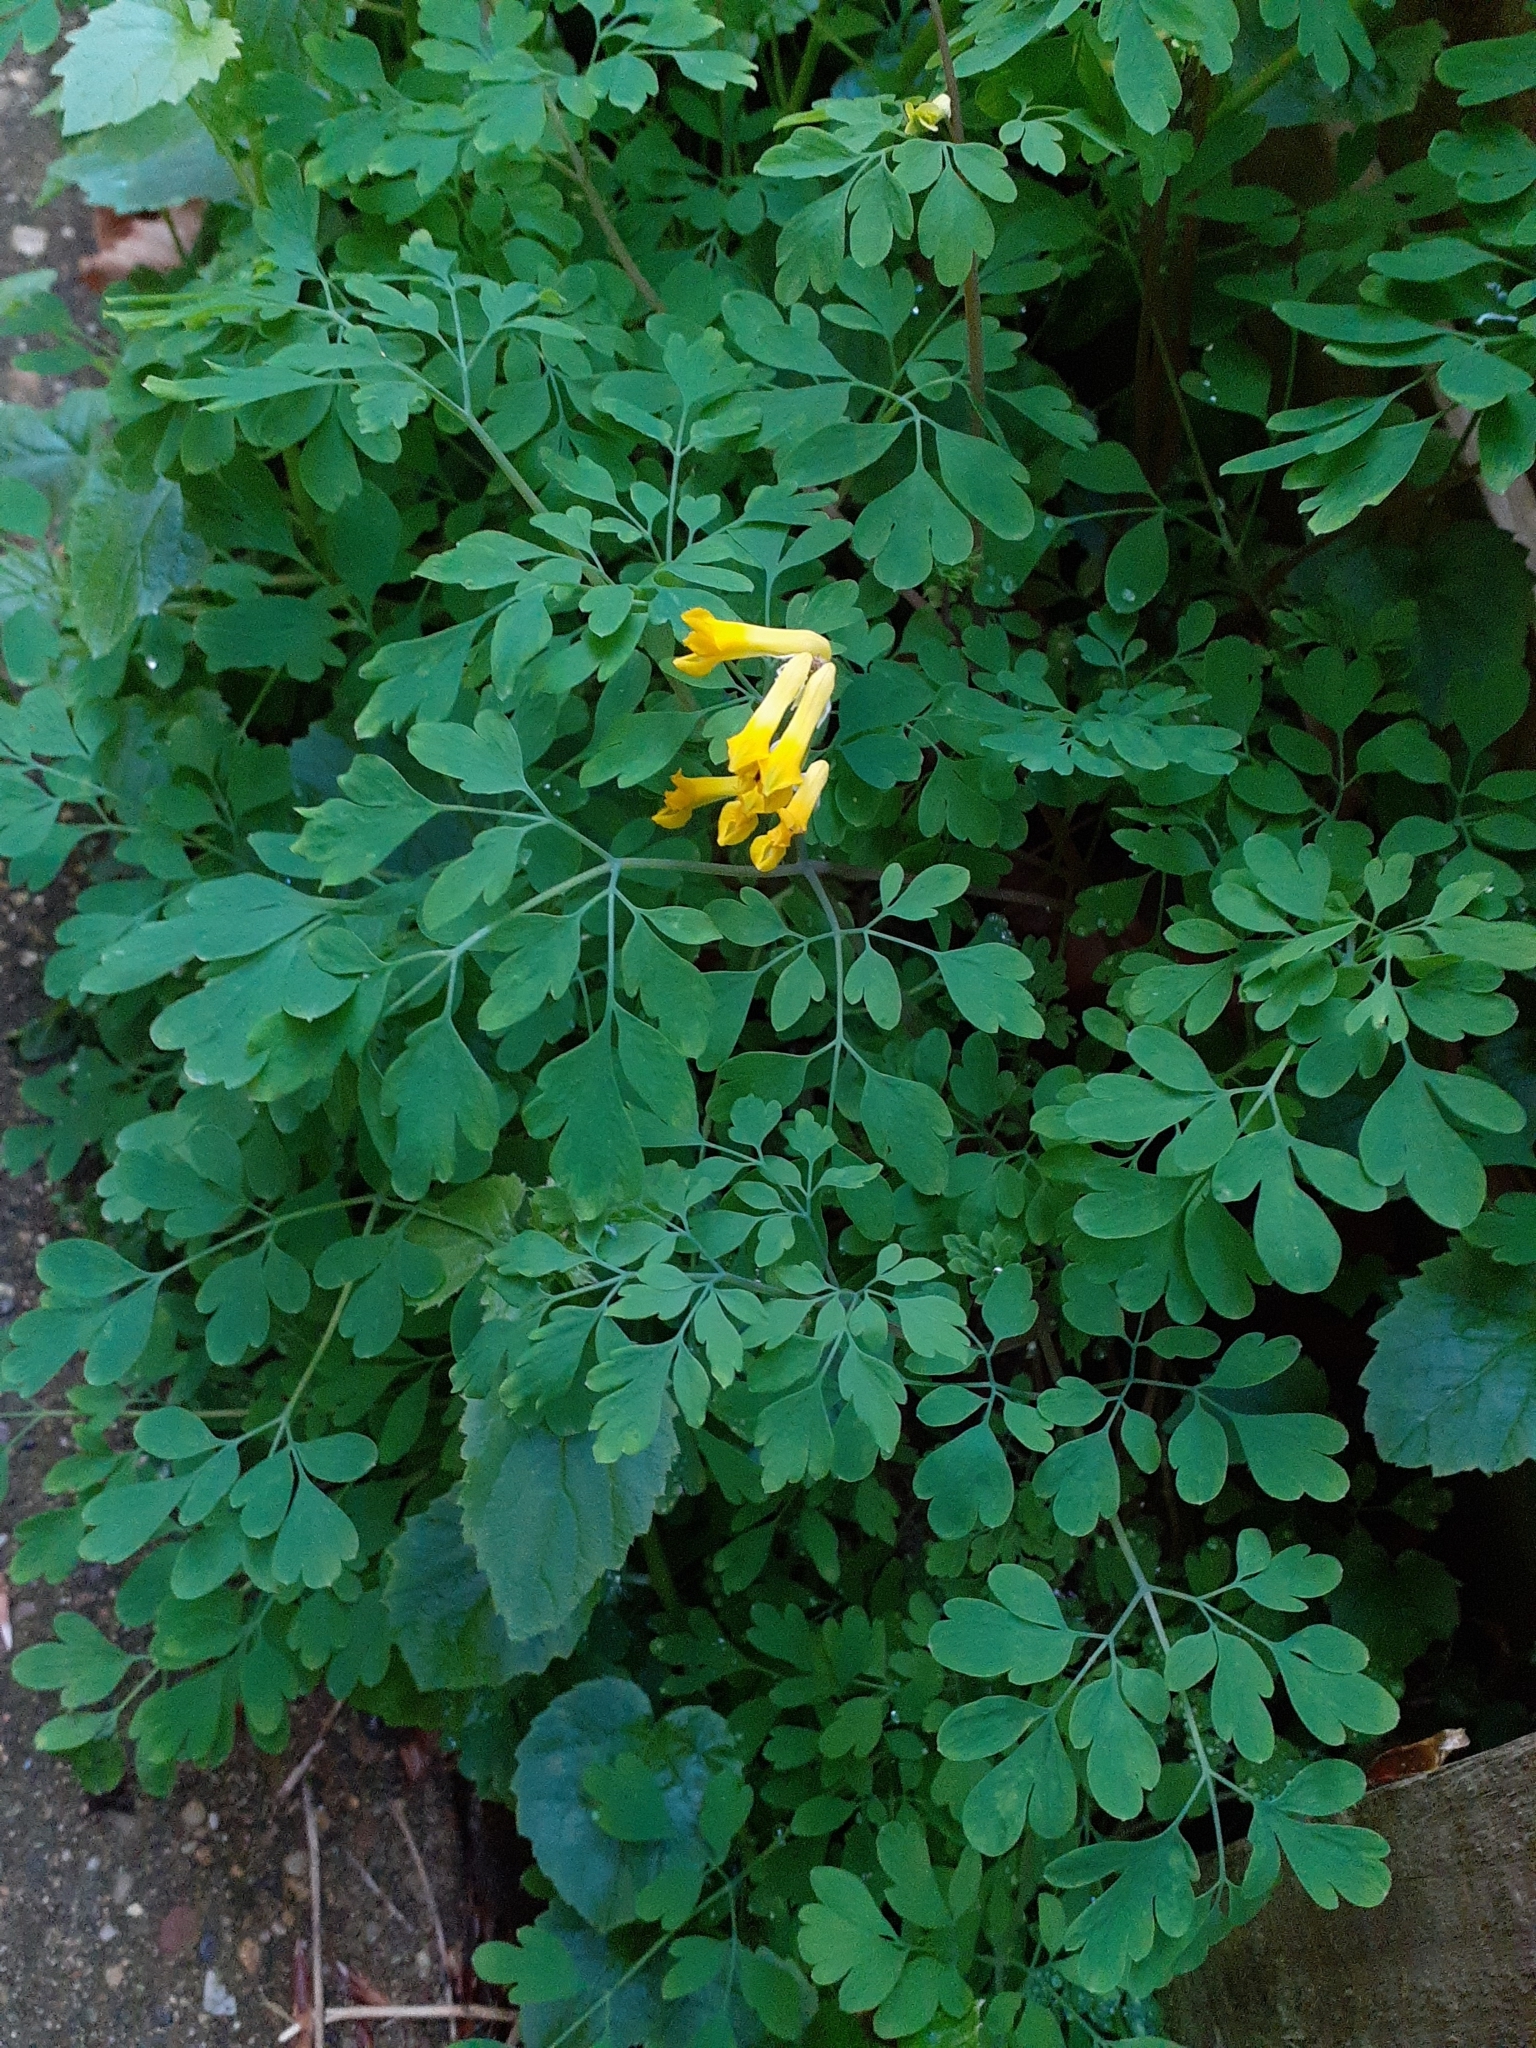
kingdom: Plantae
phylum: Tracheophyta
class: Magnoliopsida
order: Ranunculales
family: Papaveraceae
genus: Pseudofumaria
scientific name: Pseudofumaria lutea
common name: Yellow corydalis
